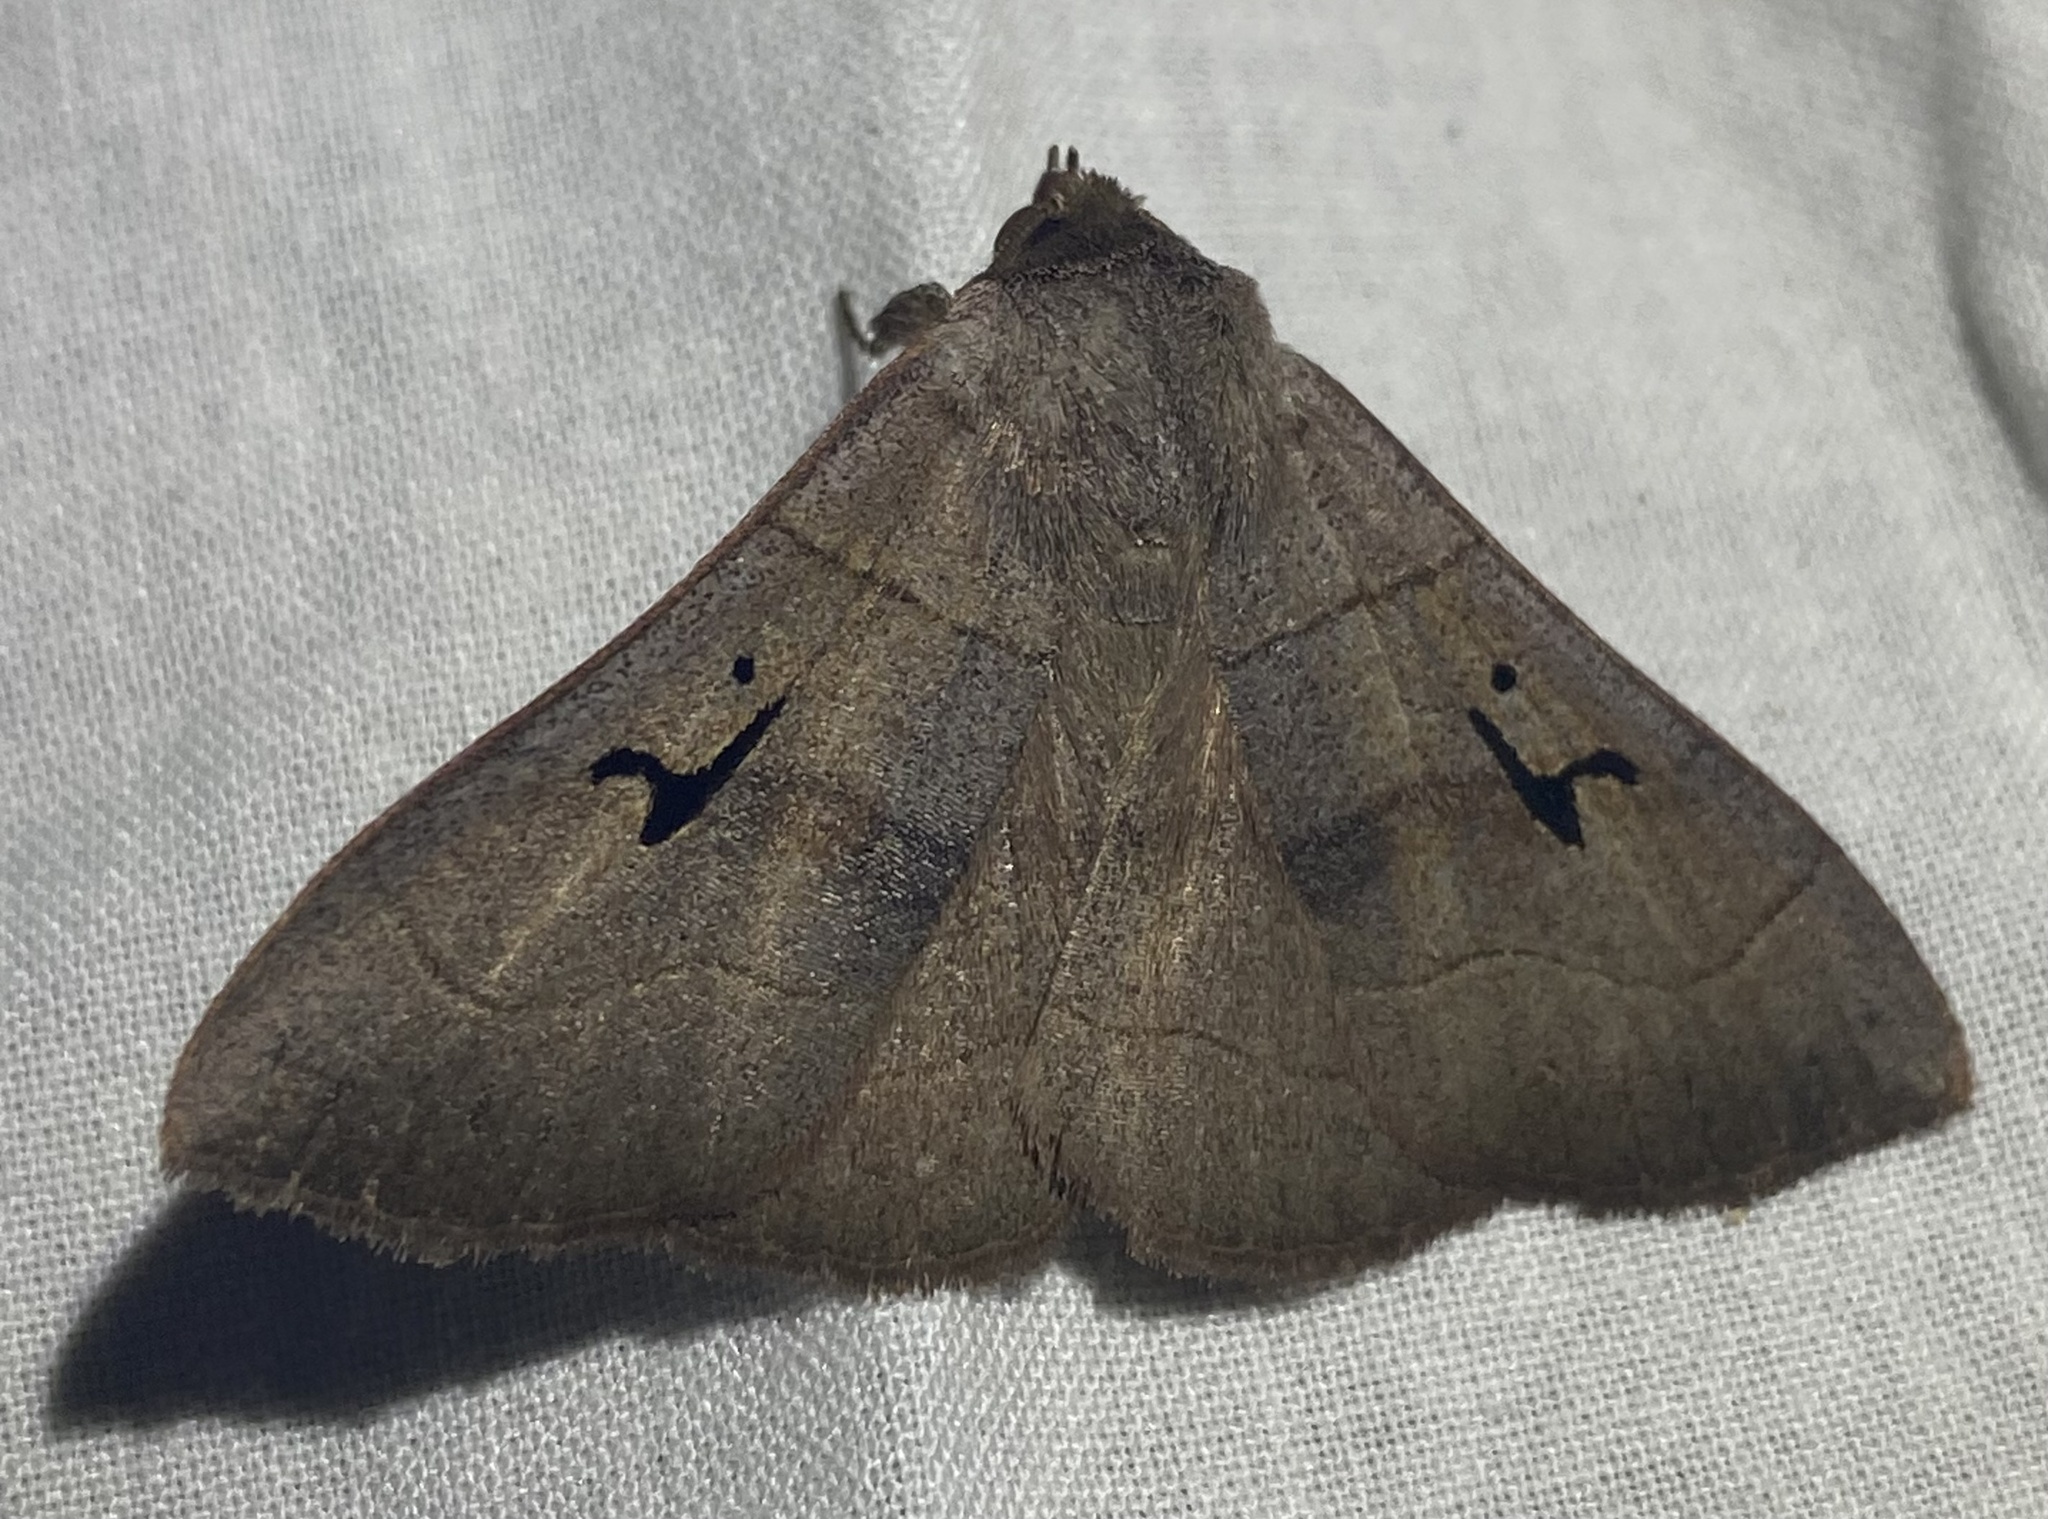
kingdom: Animalia
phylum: Arthropoda
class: Insecta
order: Lepidoptera
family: Erebidae
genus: Panopoda
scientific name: Panopoda carneicosta
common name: Brown panopoda moth
